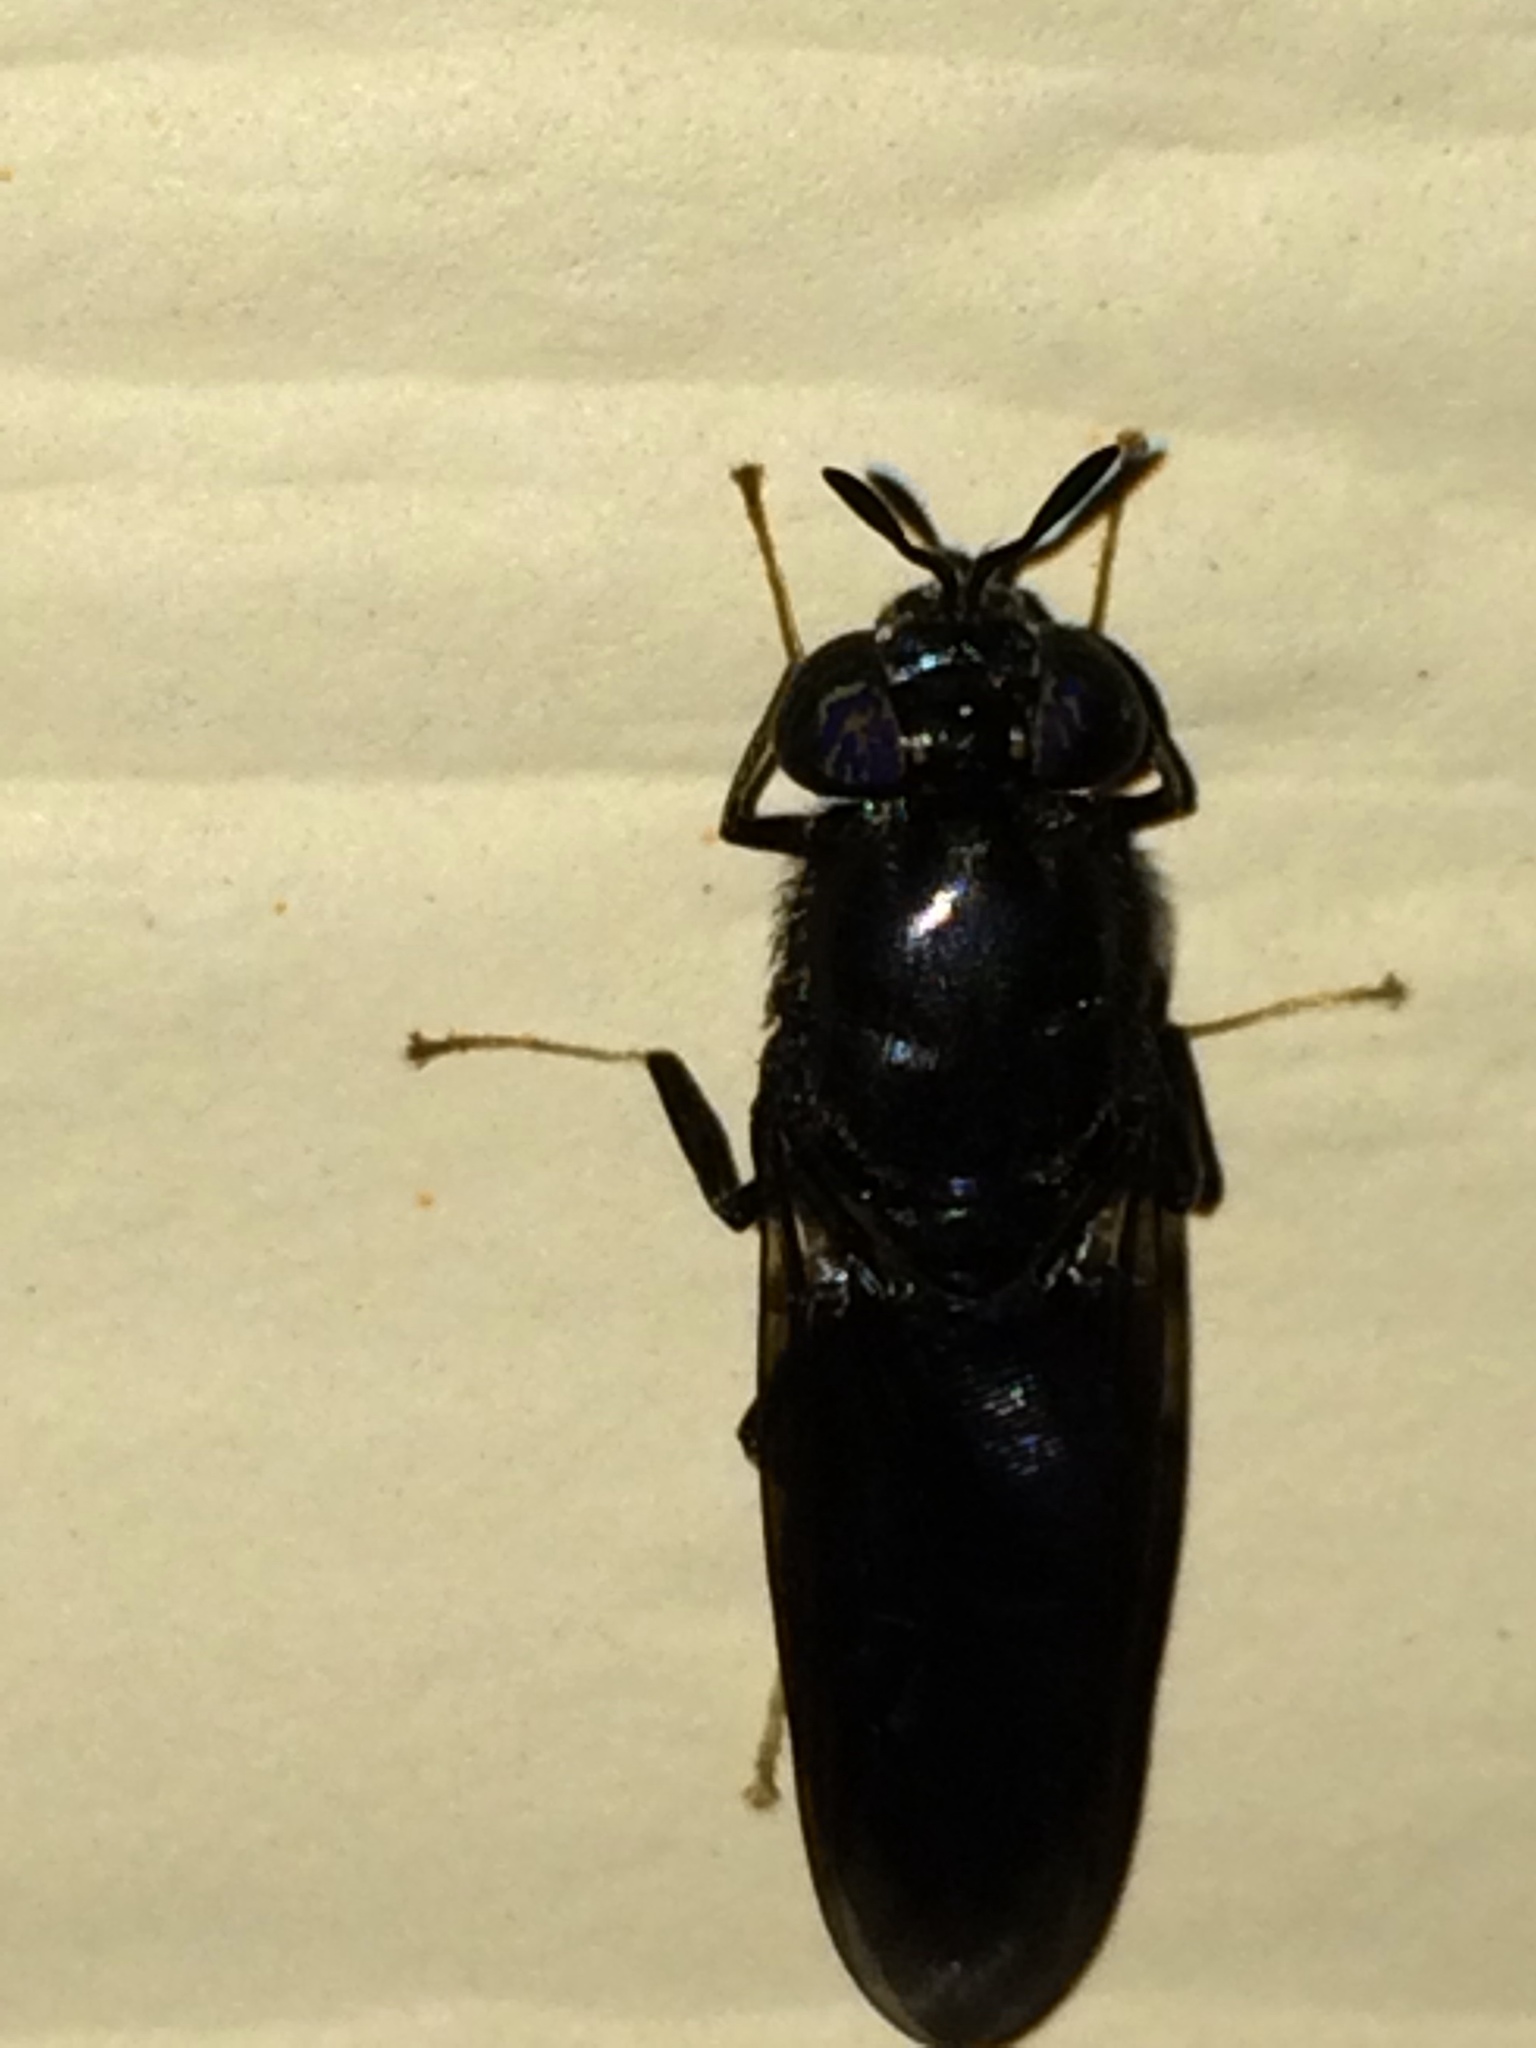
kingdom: Animalia
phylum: Arthropoda
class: Insecta
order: Diptera
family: Stratiomyidae
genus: Hermetia
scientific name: Hermetia illucens
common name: Black soldier fly
